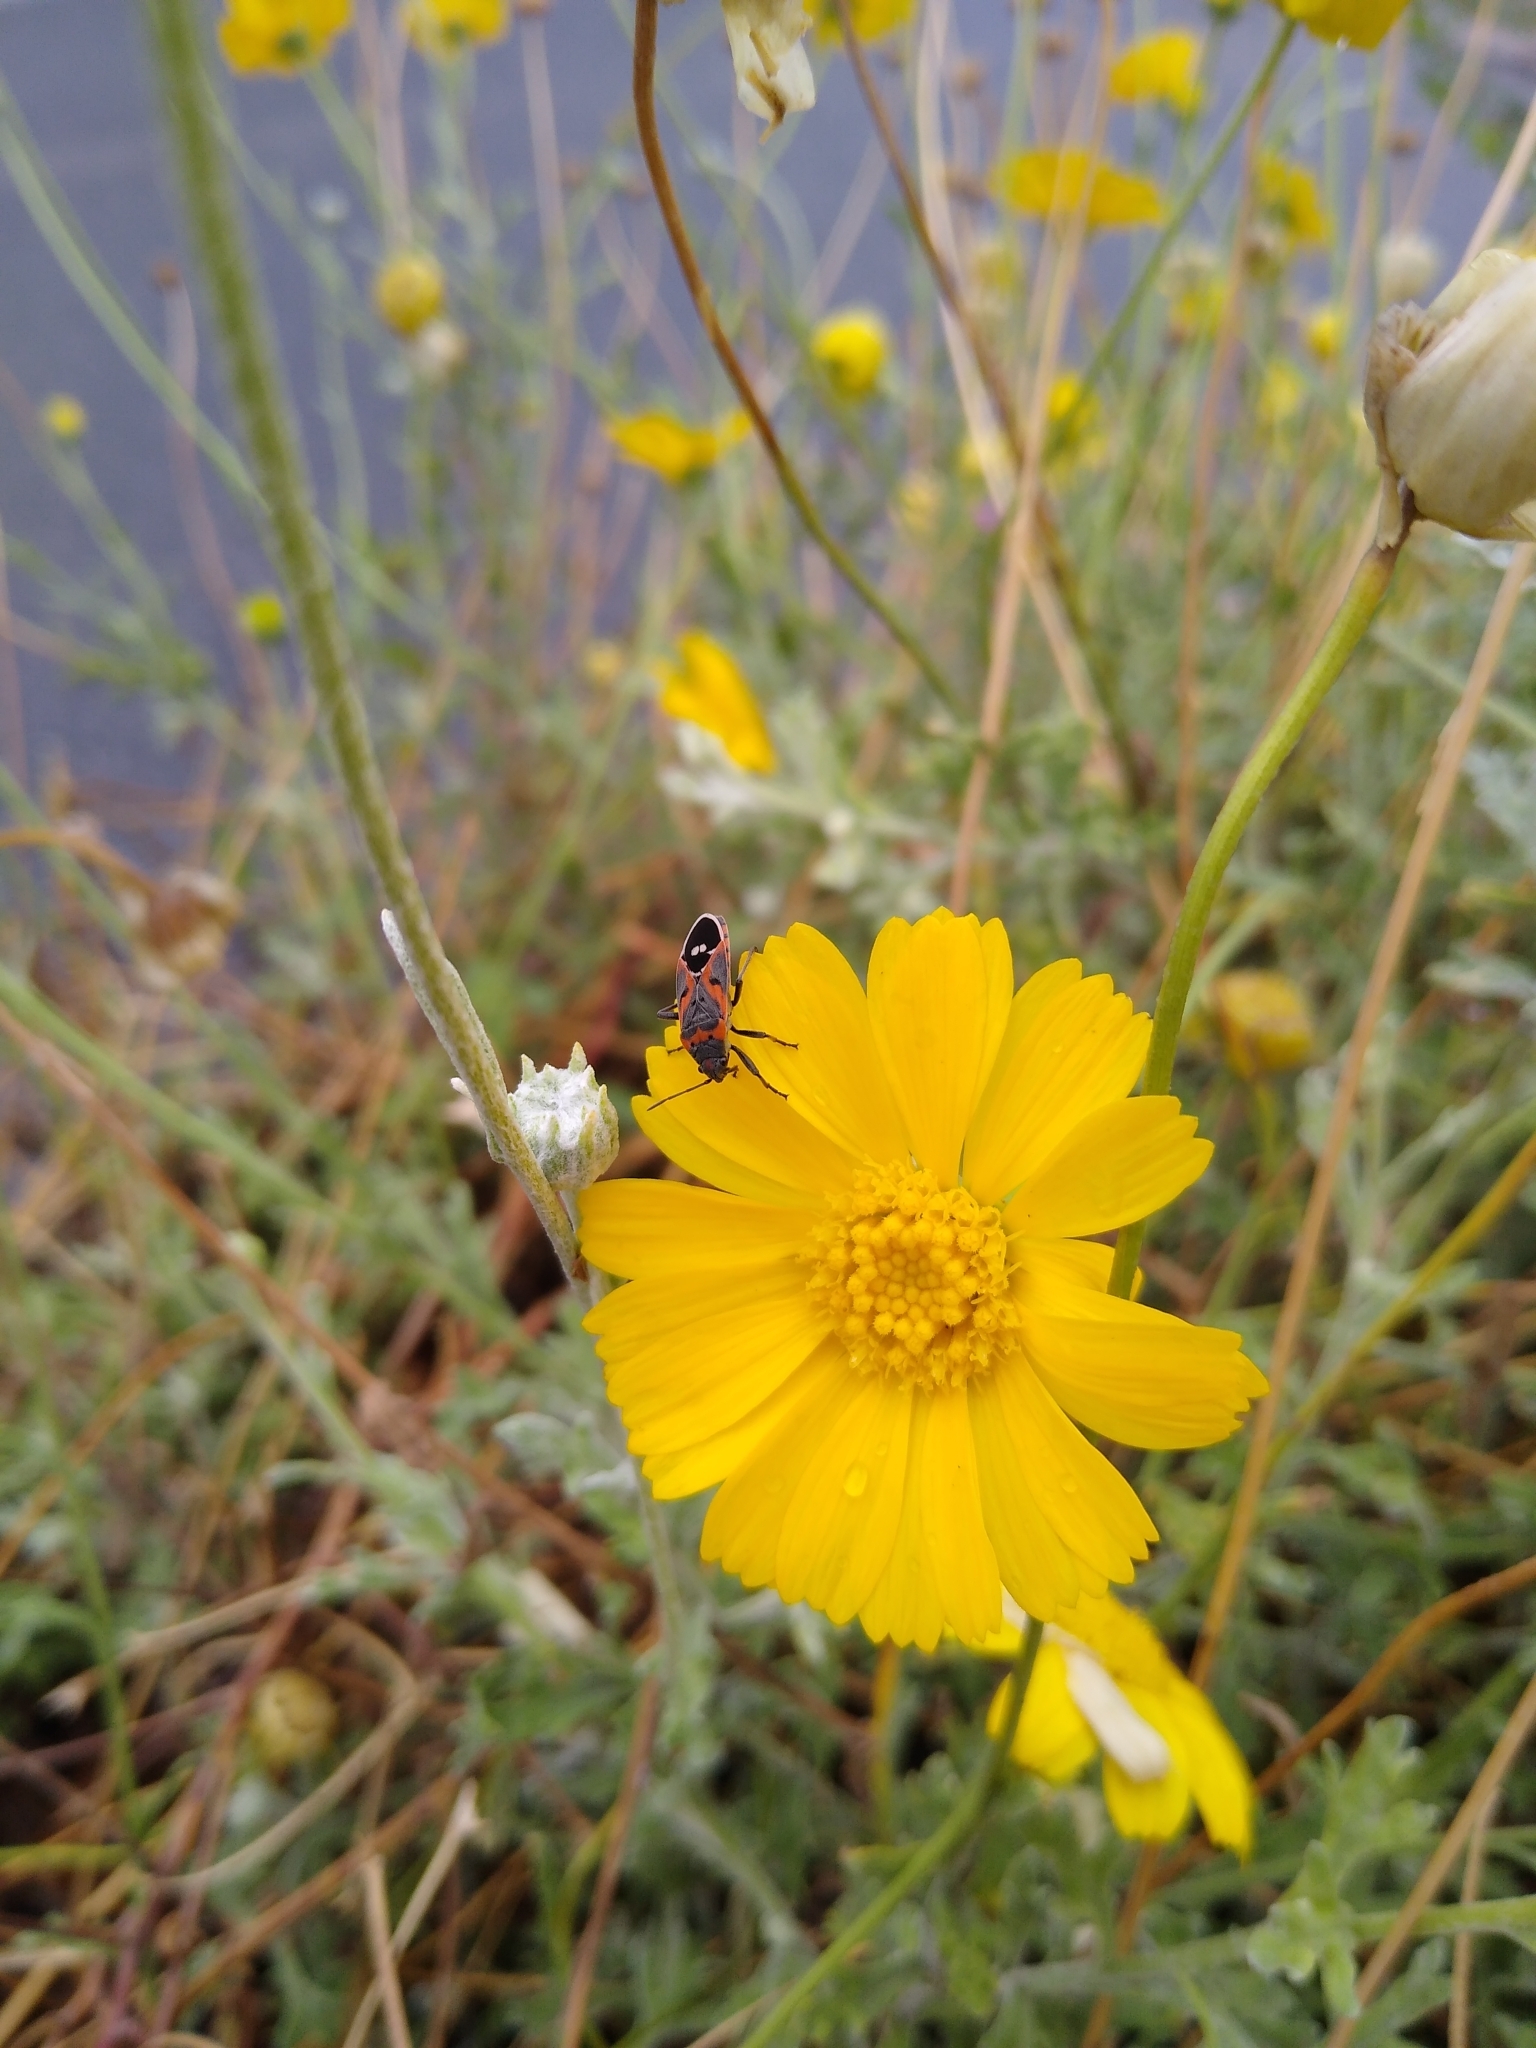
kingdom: Animalia
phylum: Arthropoda
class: Insecta
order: Hemiptera
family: Lygaeidae
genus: Lygaeus
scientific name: Lygaeus kalmii
